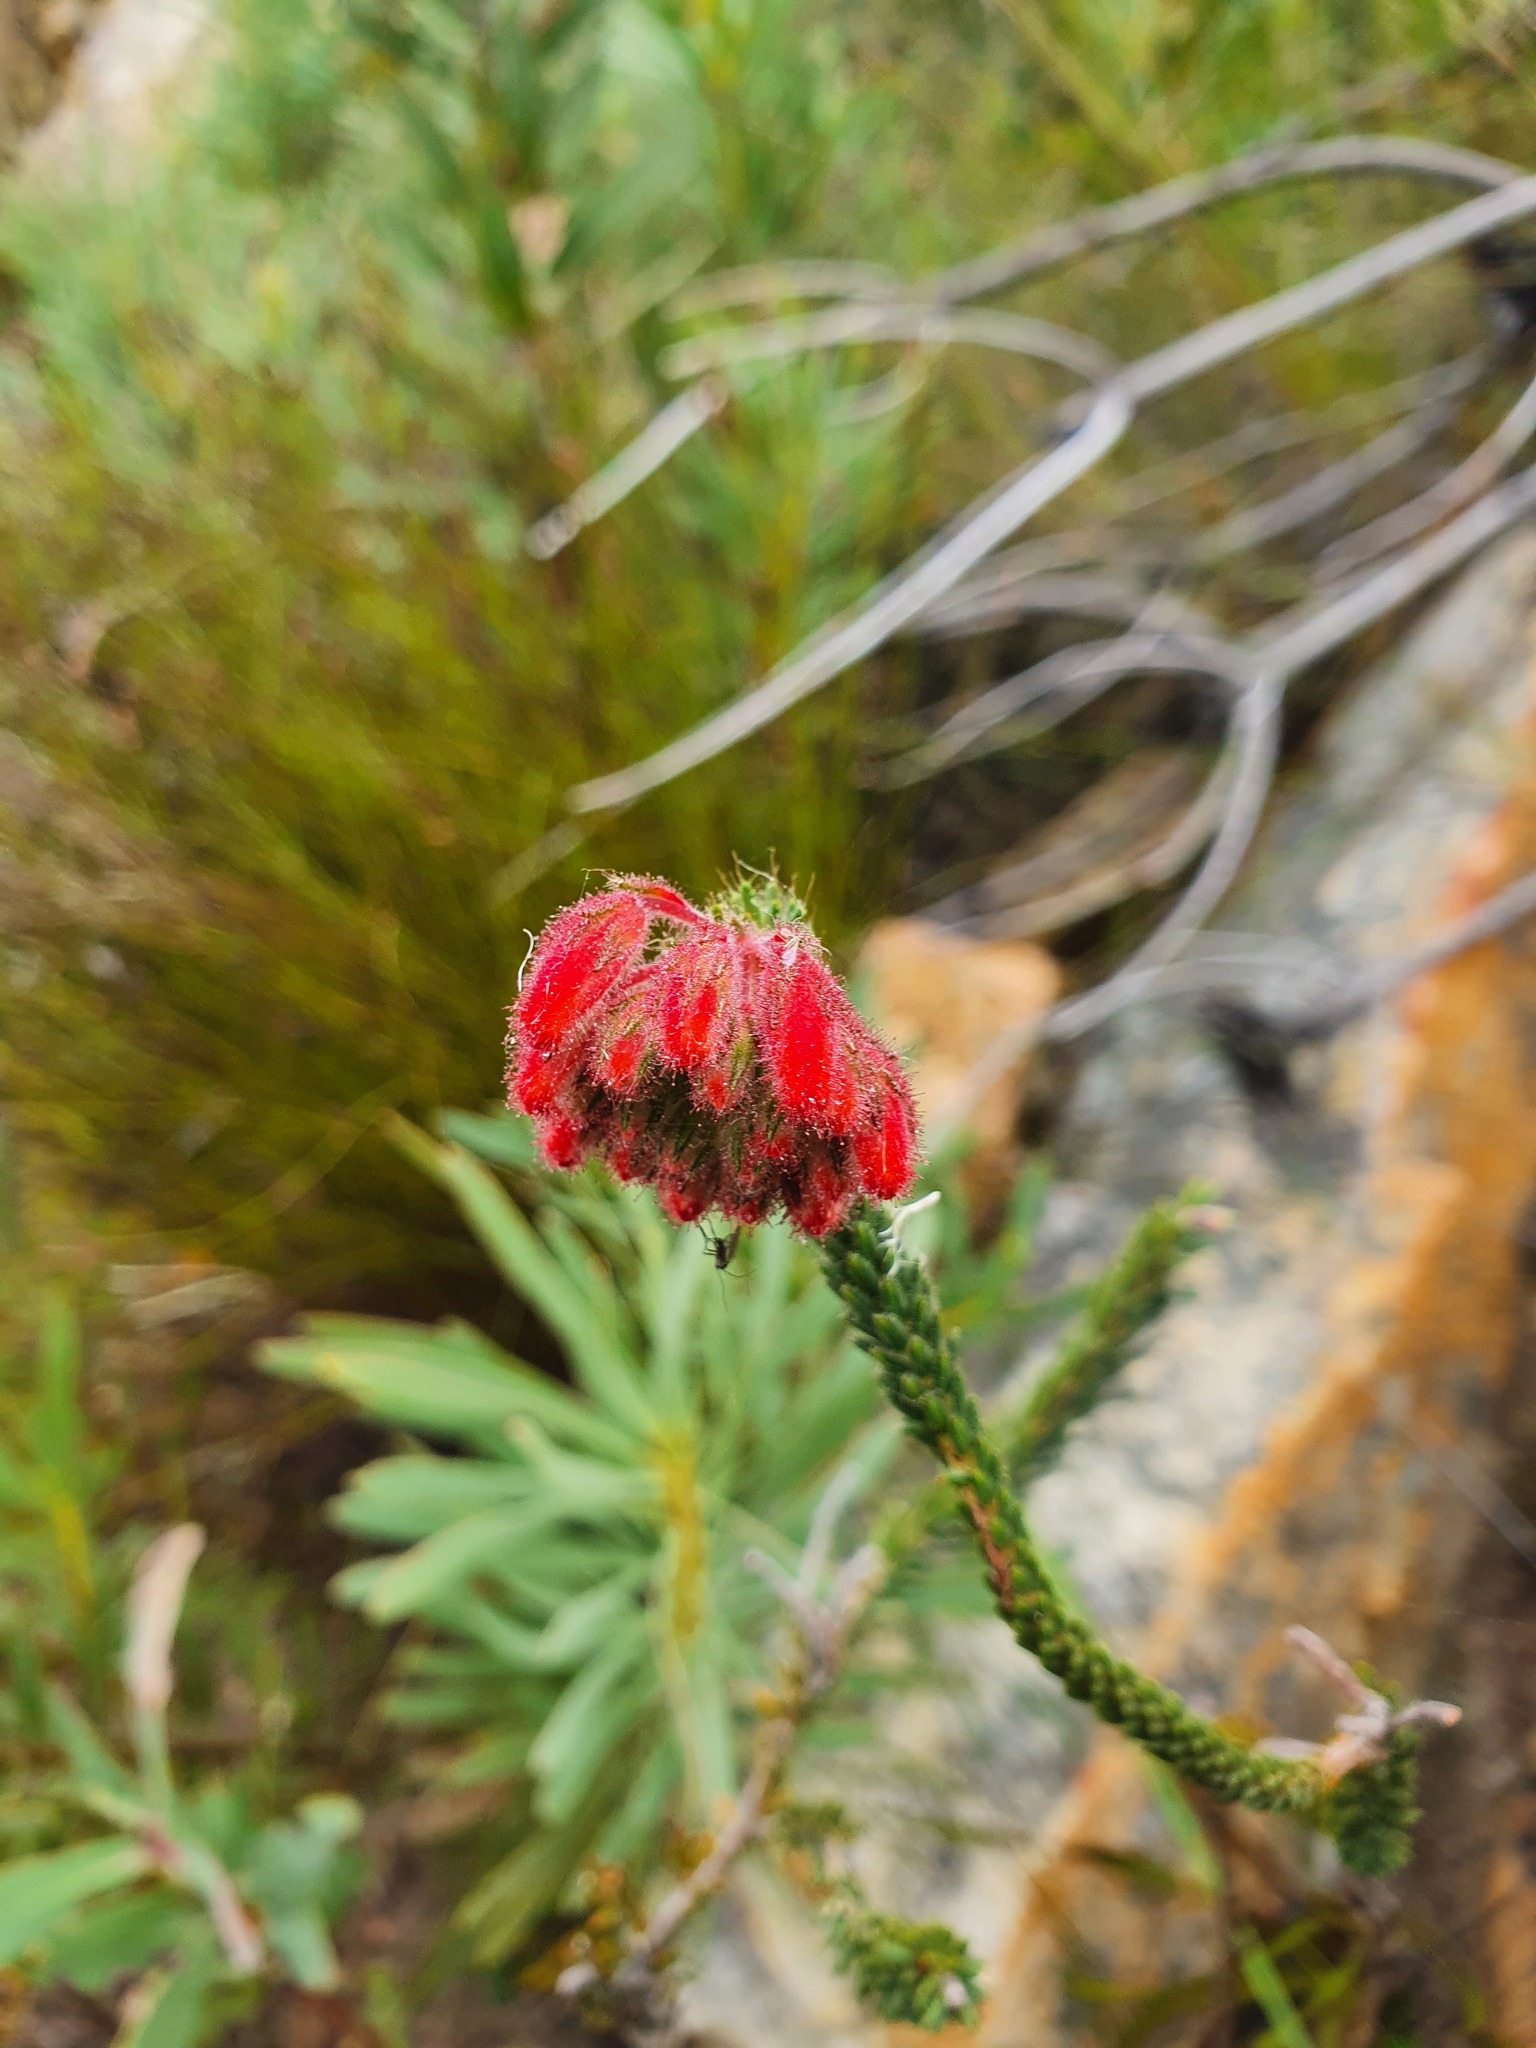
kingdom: Plantae
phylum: Tracheophyta
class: Magnoliopsida
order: Ericales
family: Ericaceae
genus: Erica
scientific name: Erica cerinthoides
